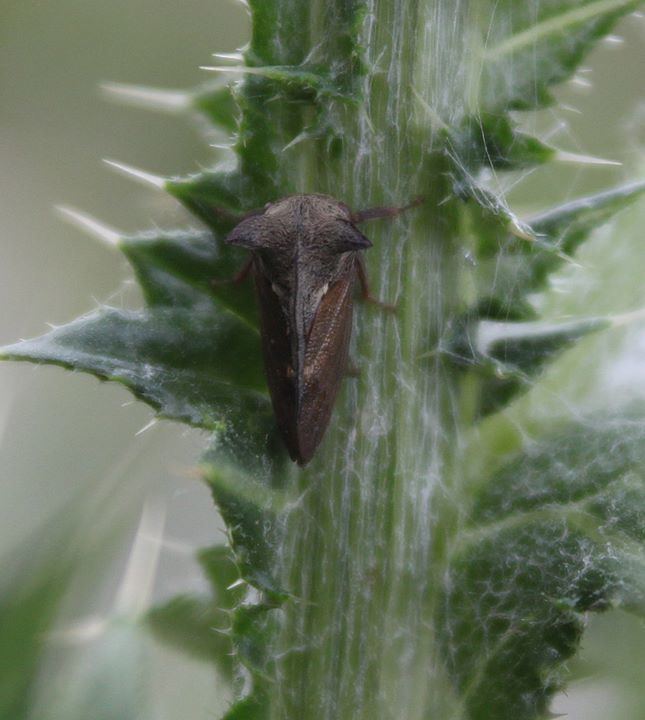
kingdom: Animalia
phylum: Arthropoda
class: Insecta
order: Hemiptera
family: Membracidae
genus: Centrotus
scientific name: Centrotus cornuta
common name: Treehopper
